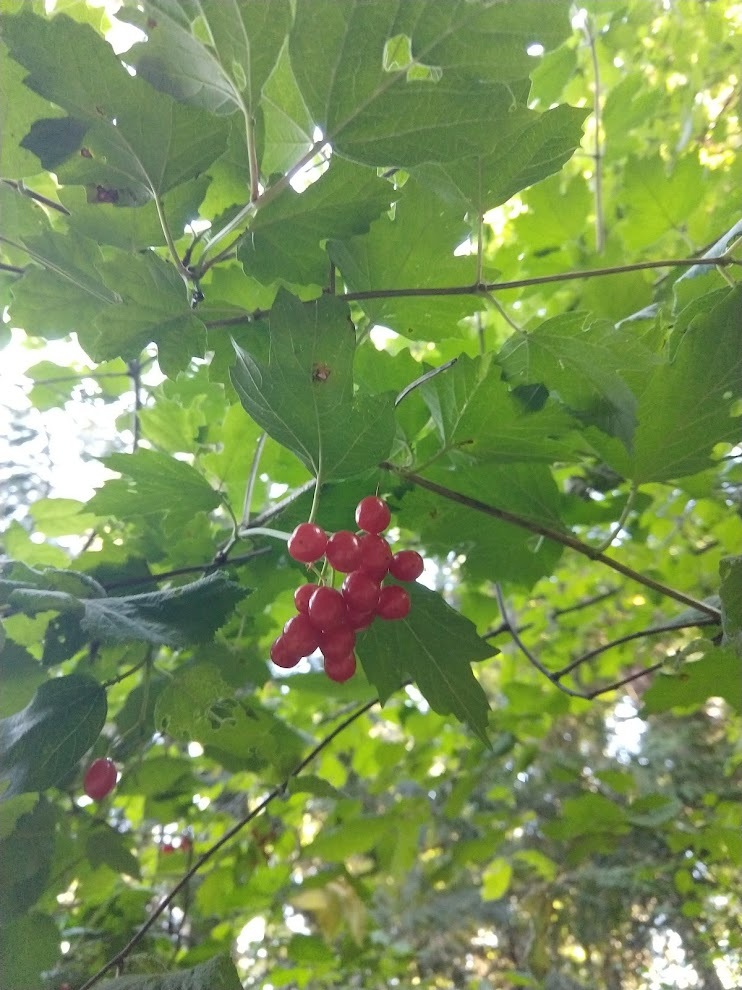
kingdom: Plantae
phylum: Tracheophyta
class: Magnoliopsida
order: Dipsacales
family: Viburnaceae
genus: Viburnum
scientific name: Viburnum opulus
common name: Guelder-rose
